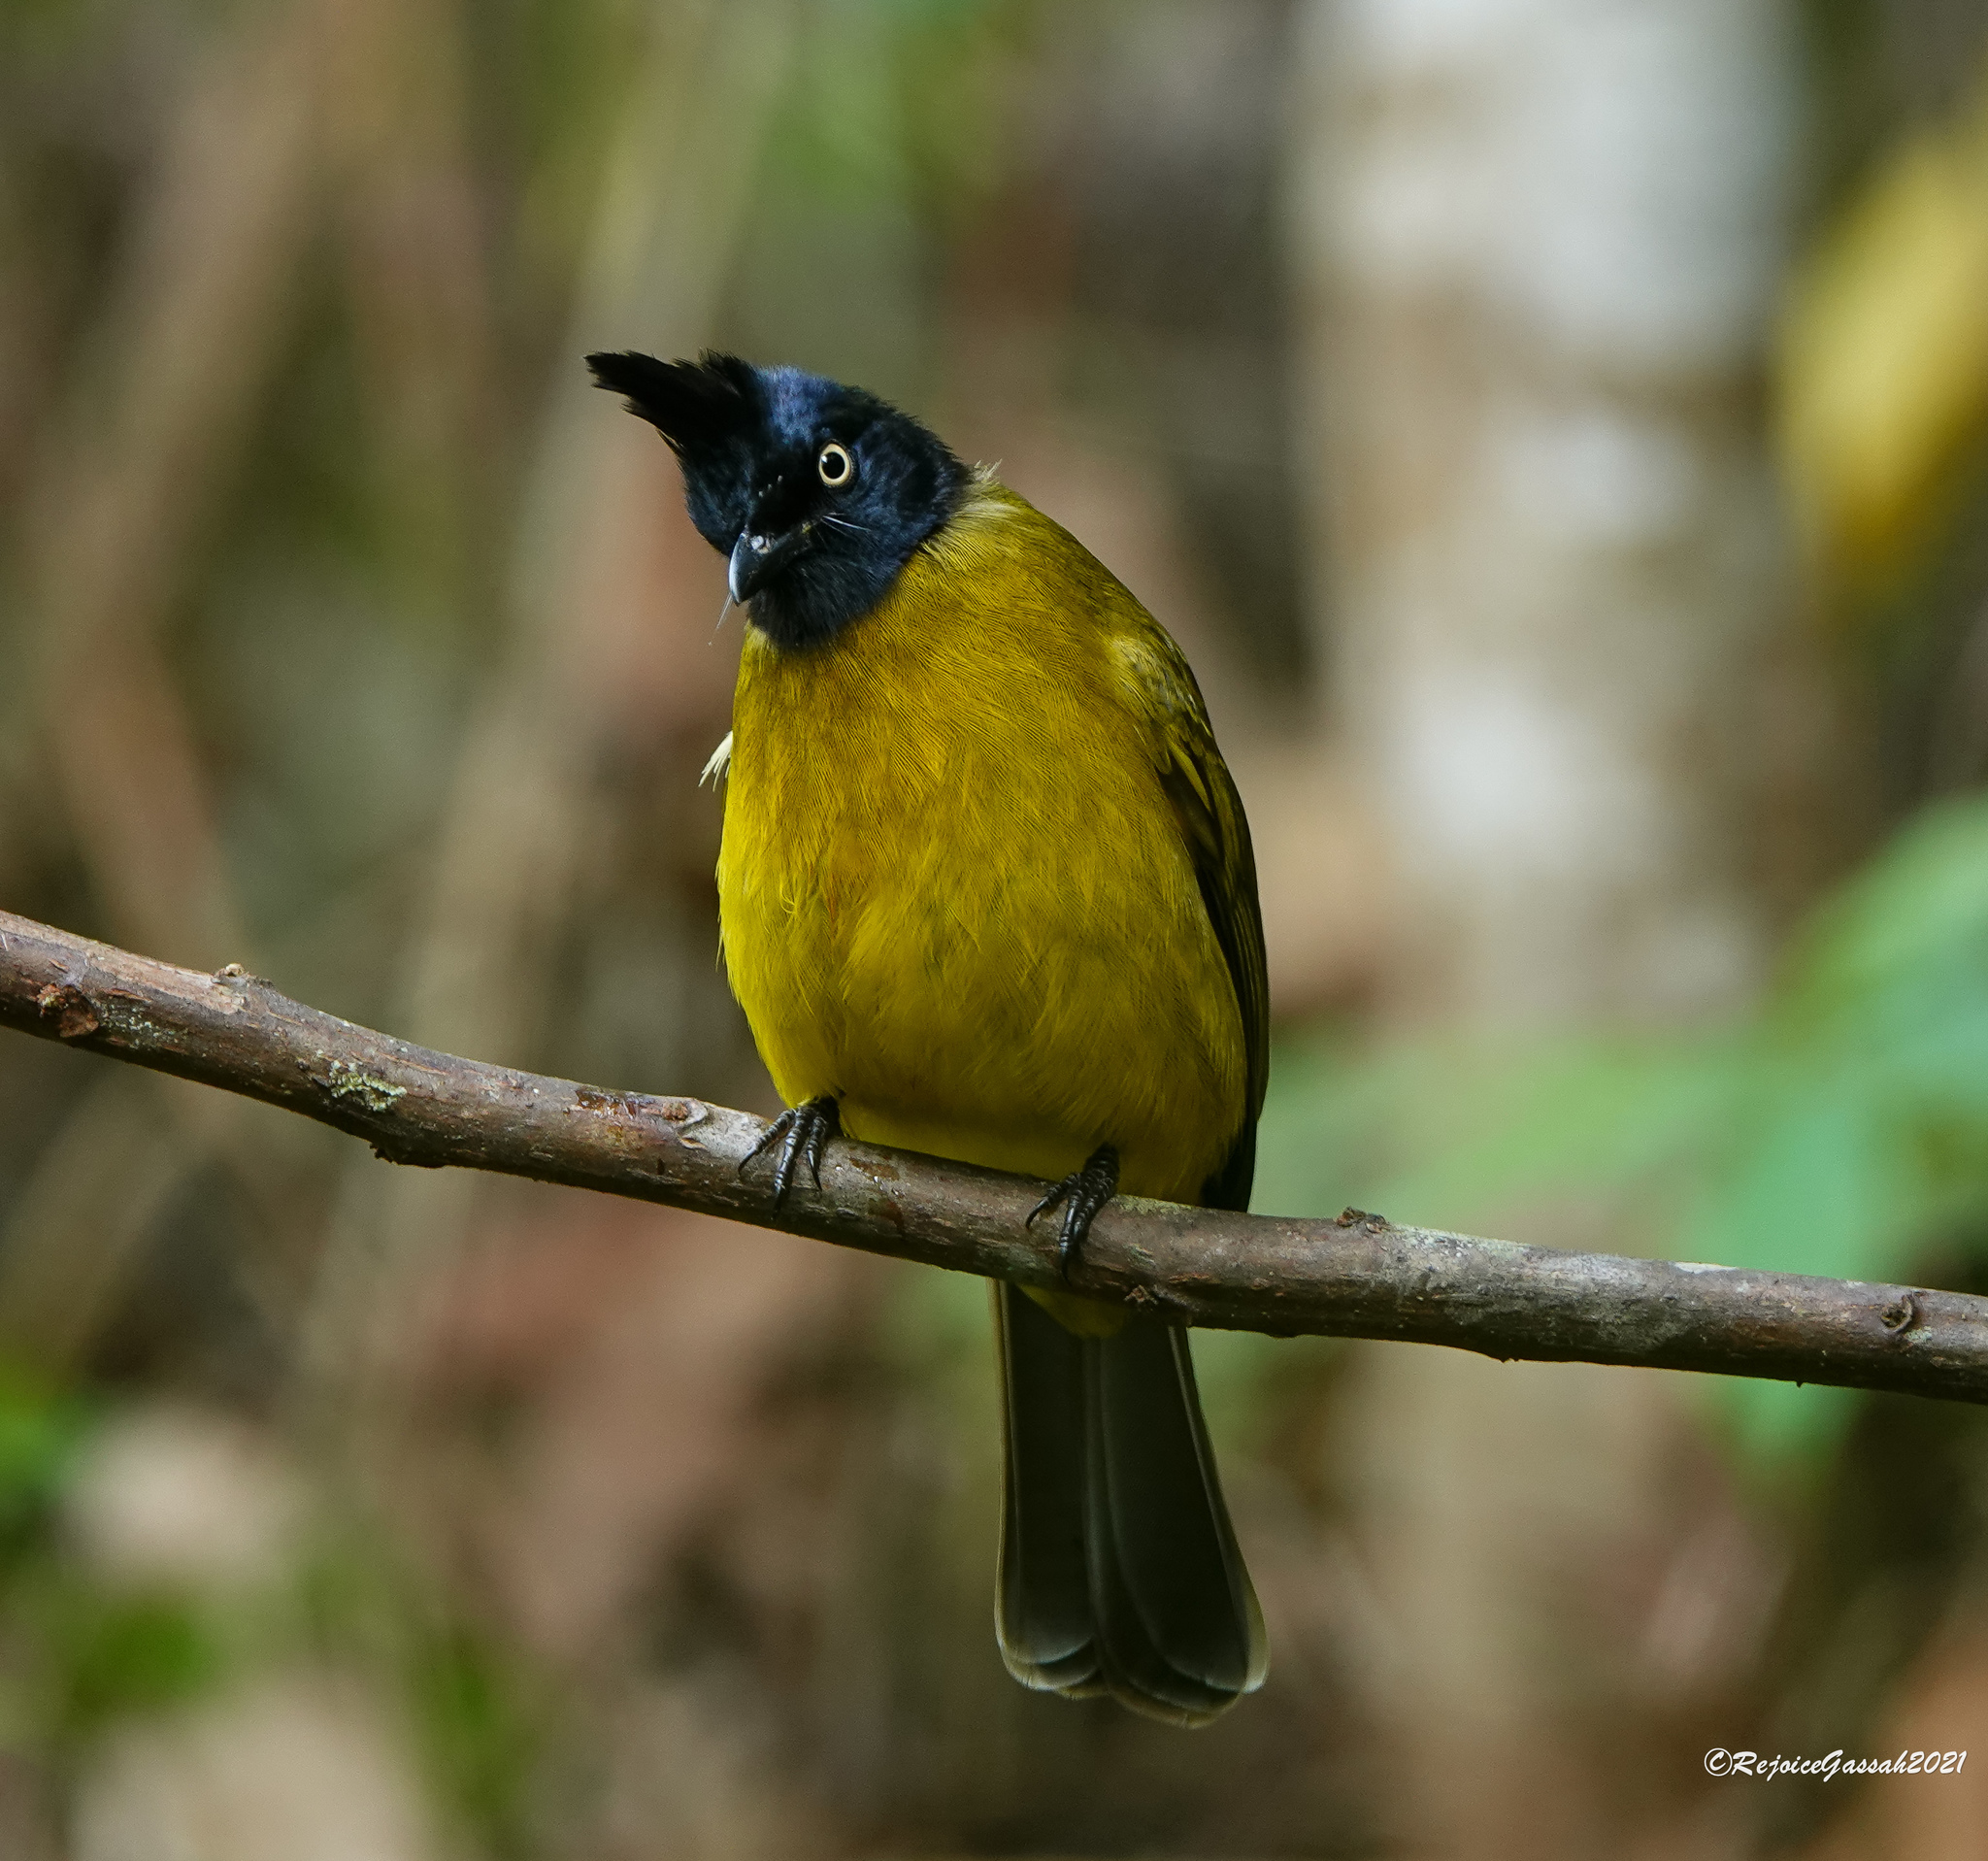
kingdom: Animalia
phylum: Chordata
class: Aves
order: Passeriformes
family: Pycnonotidae
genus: Pycnonotus
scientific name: Pycnonotus flaviventris
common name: Black-crested bulbul
